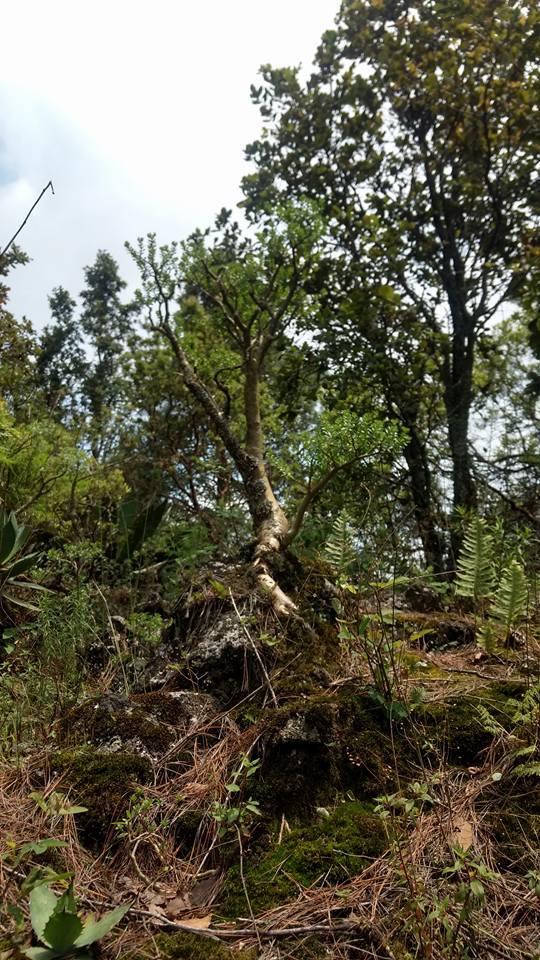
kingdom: Plantae
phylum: Tracheophyta
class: Magnoliopsida
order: Saxifragales
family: Crassulaceae
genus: Sedum
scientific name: Sedum oxypetalum
